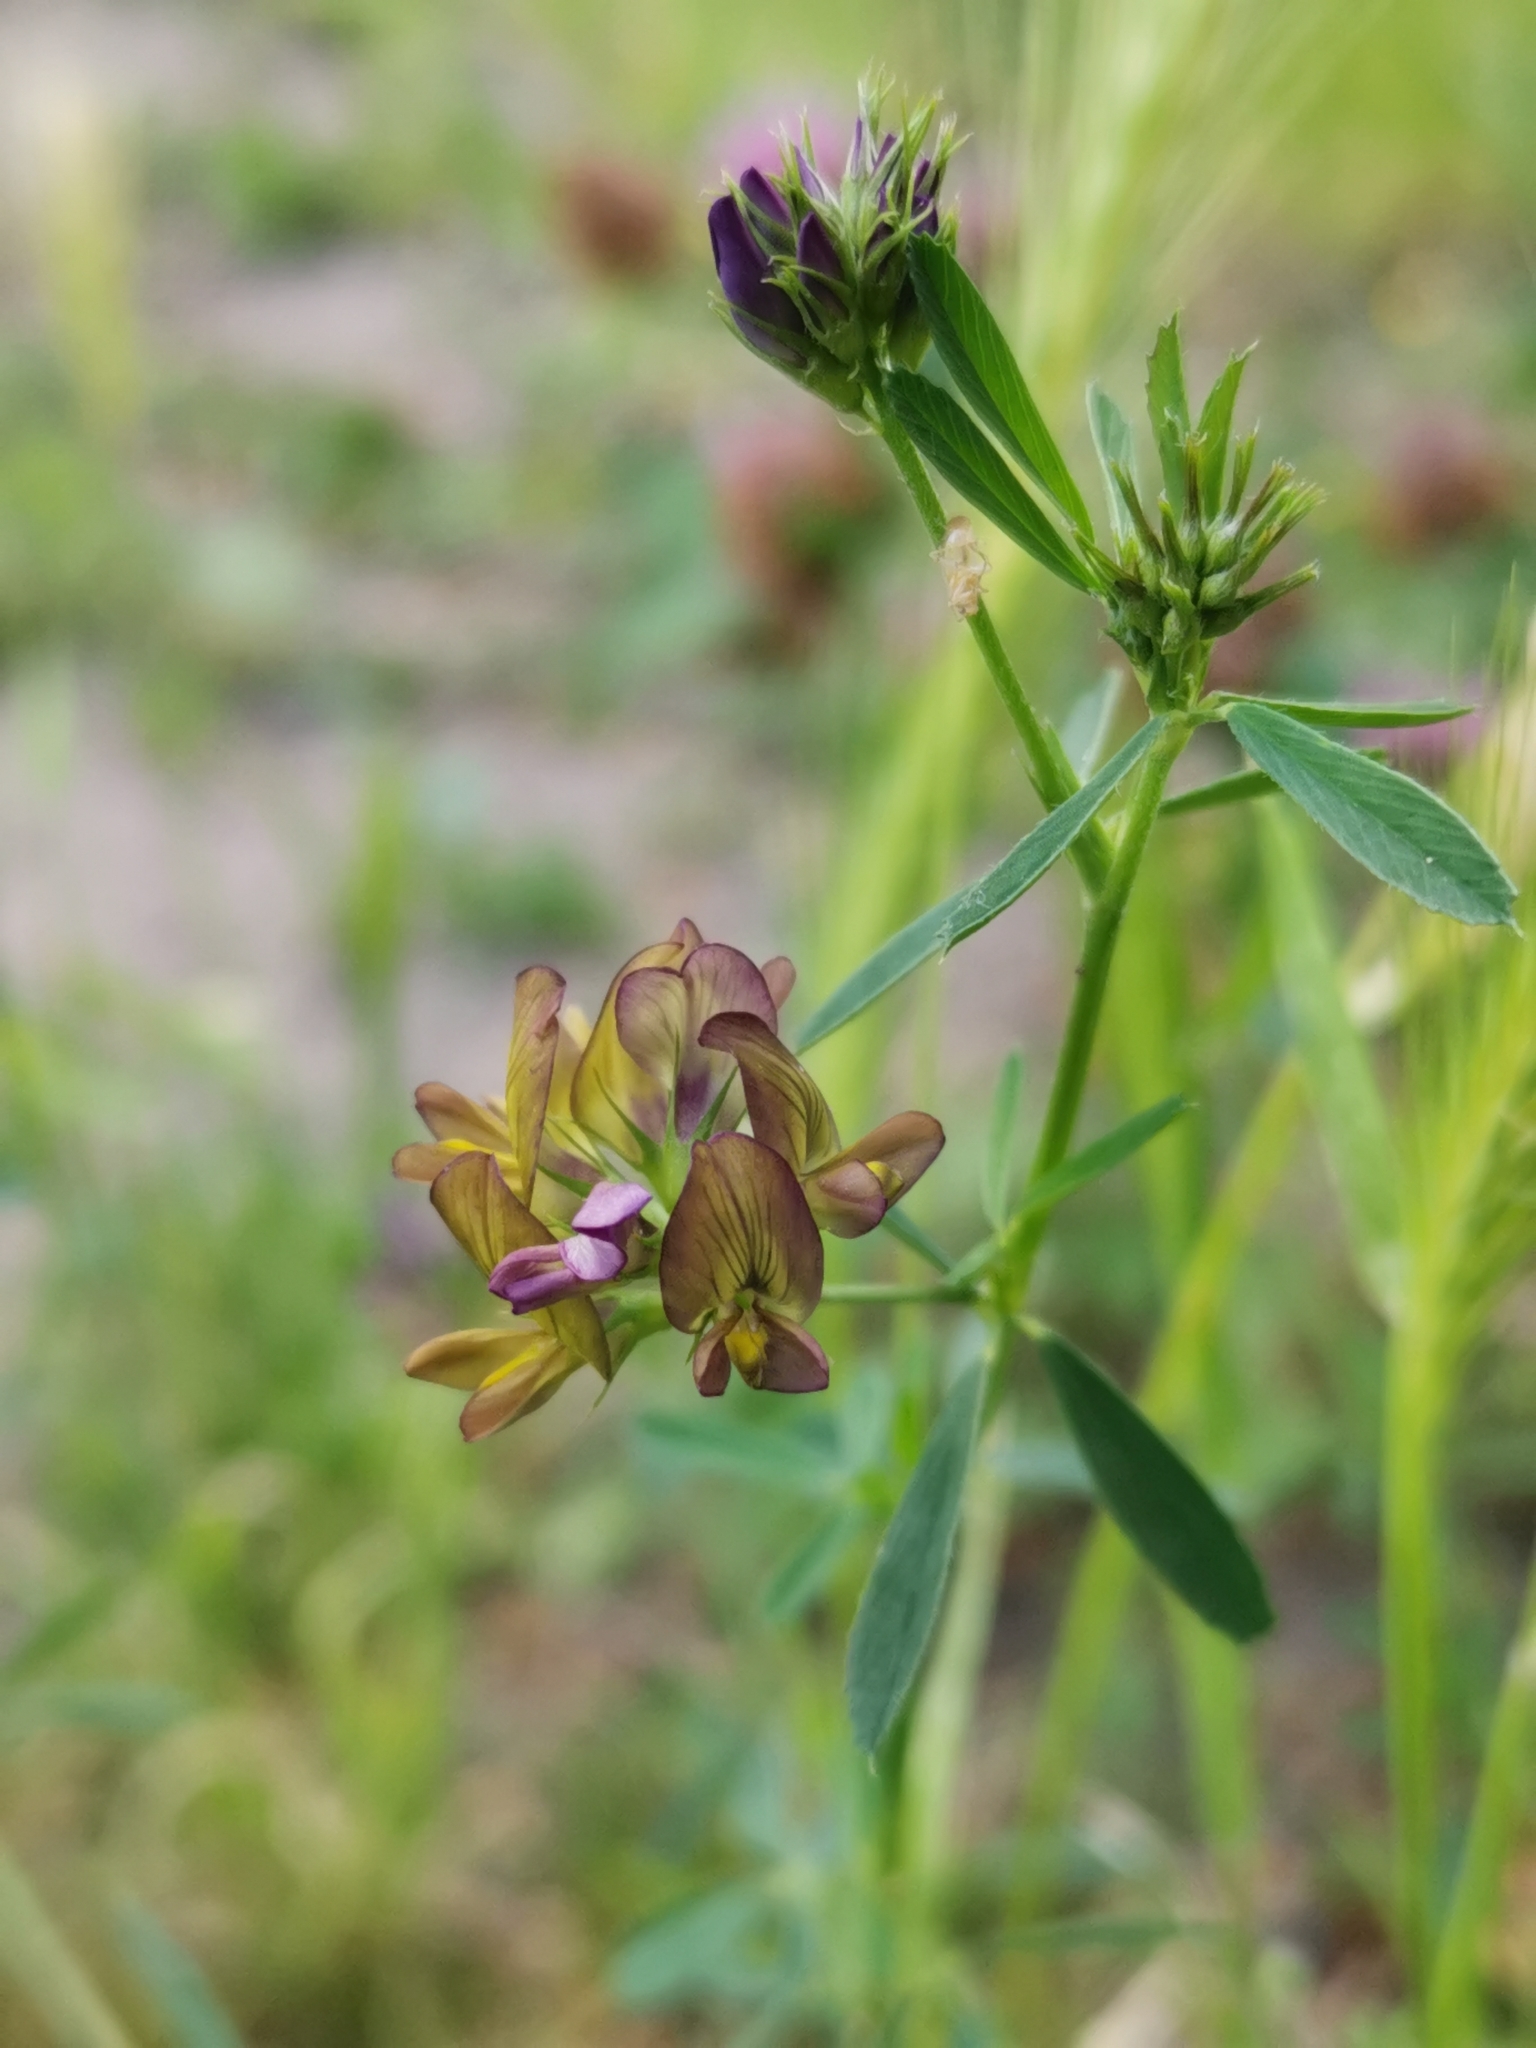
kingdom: Plantae
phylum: Tracheophyta
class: Magnoliopsida
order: Fabales
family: Fabaceae
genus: Medicago
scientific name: Medicago varia
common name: Sand lucerne
